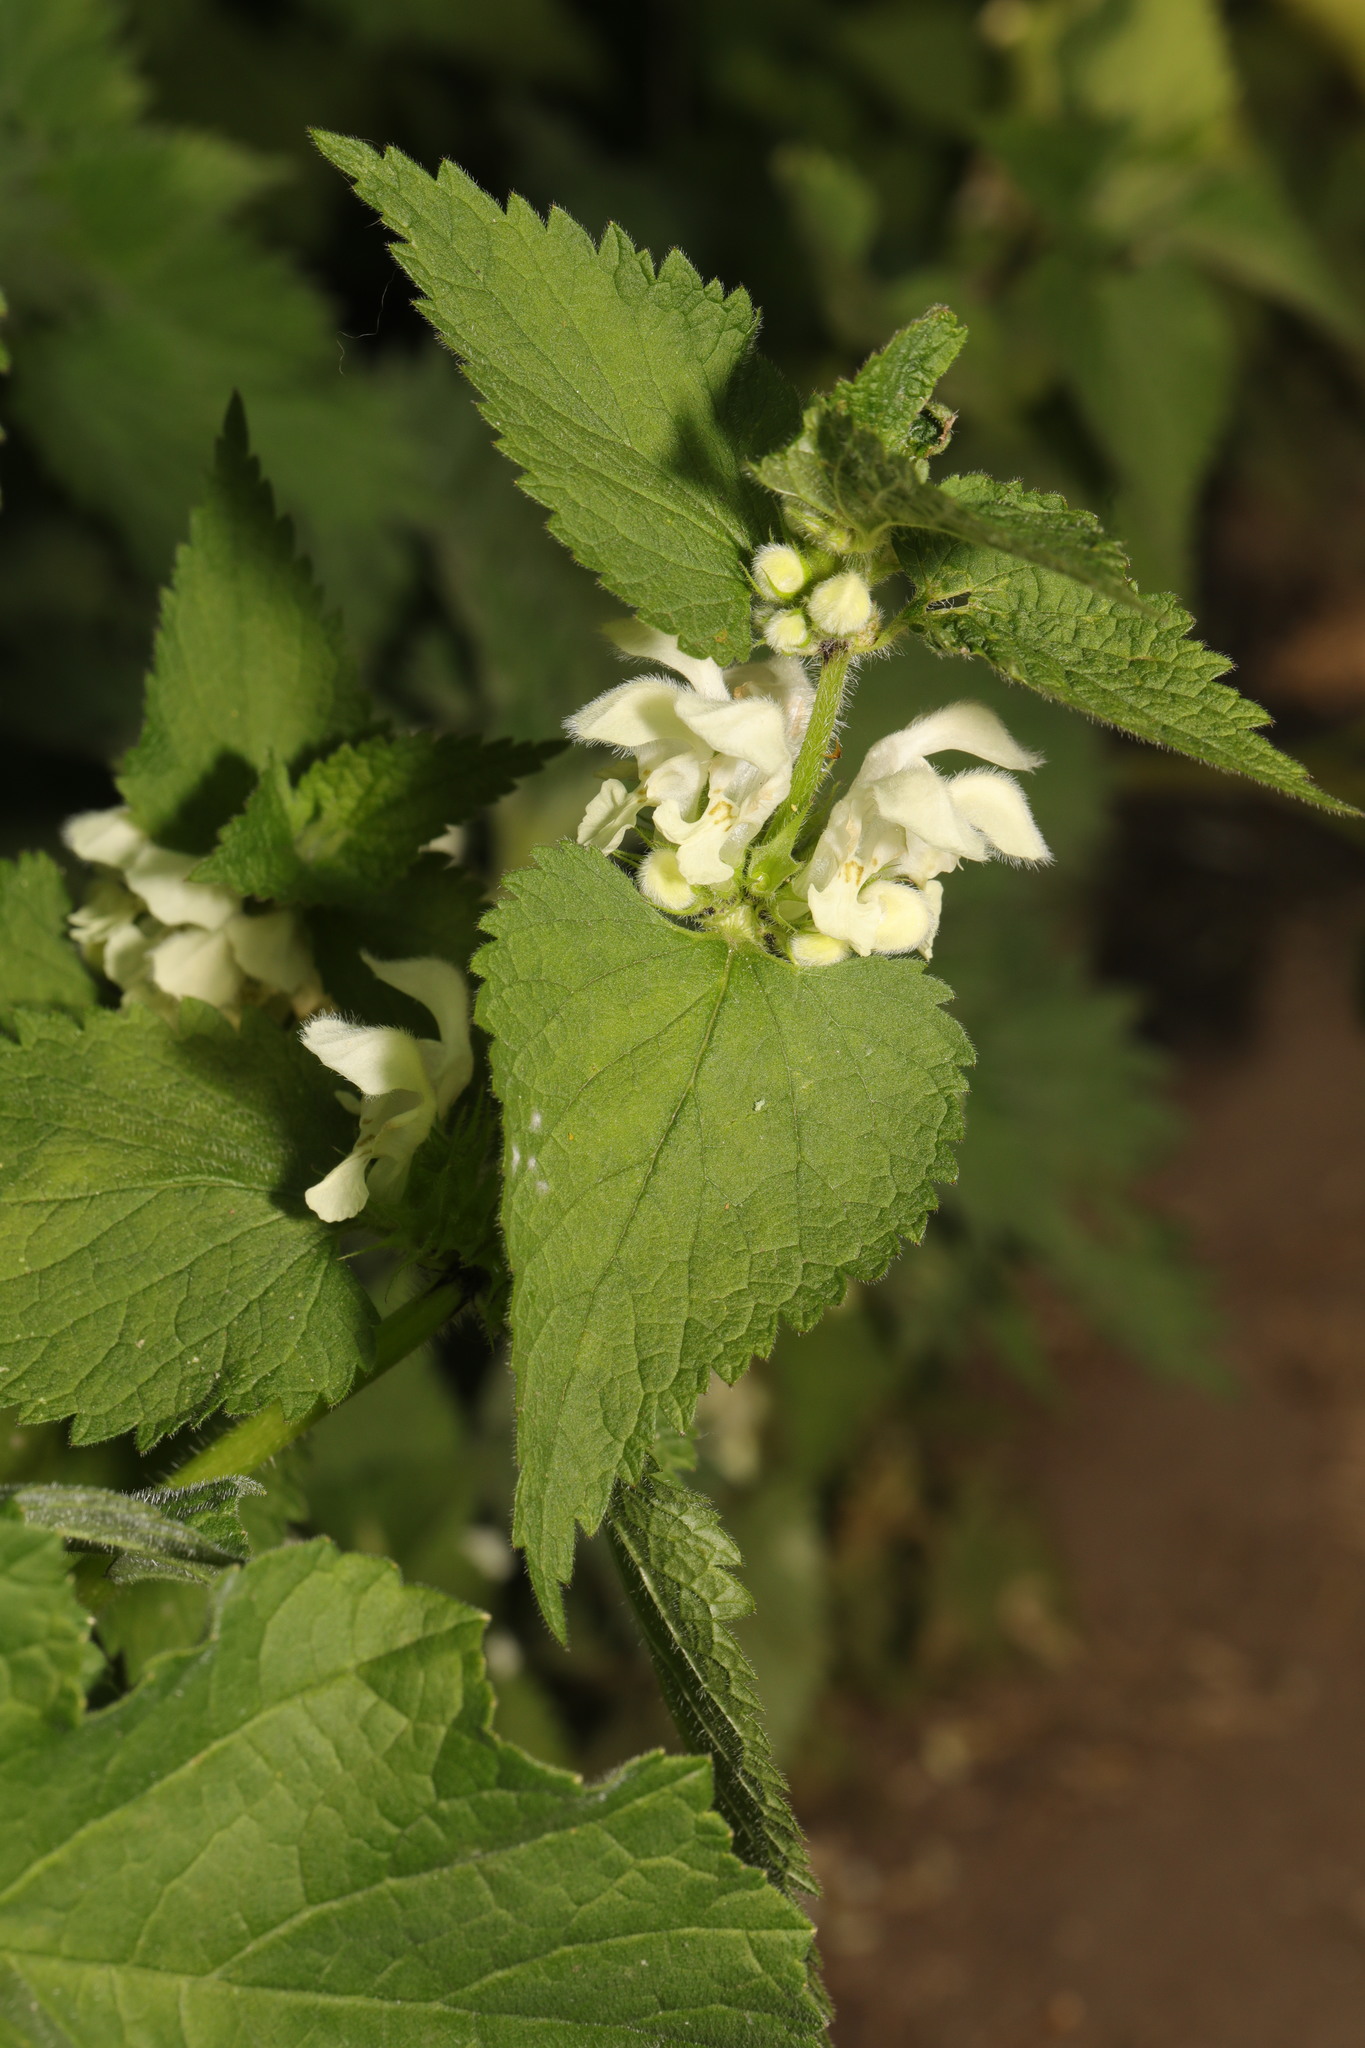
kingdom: Plantae
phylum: Tracheophyta
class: Magnoliopsida
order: Lamiales
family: Lamiaceae
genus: Lamium
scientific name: Lamium album
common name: White dead-nettle
